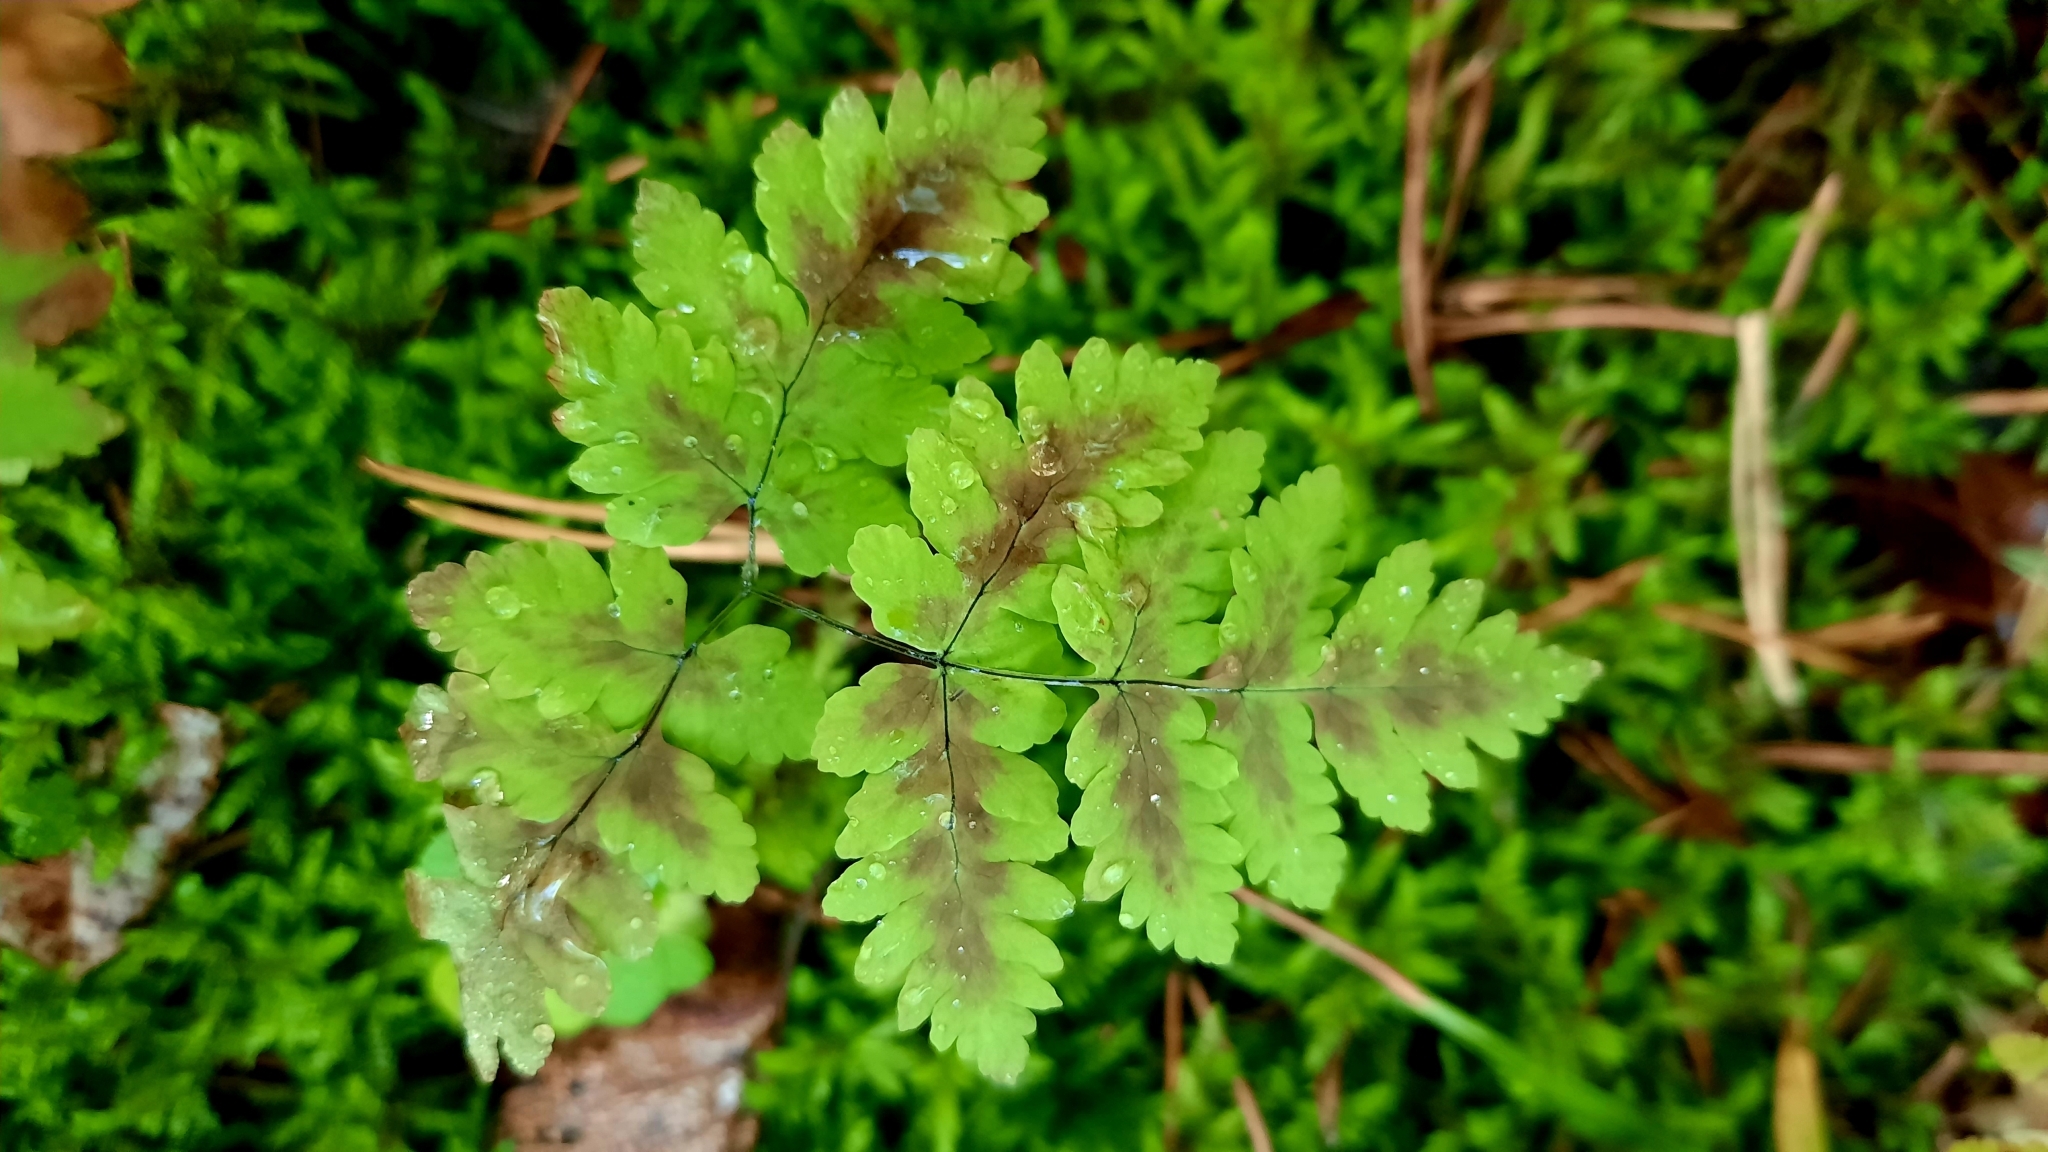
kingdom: Plantae
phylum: Tracheophyta
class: Polypodiopsida
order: Polypodiales
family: Cystopteridaceae
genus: Gymnocarpium
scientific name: Gymnocarpium dryopteris
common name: Oak fern
